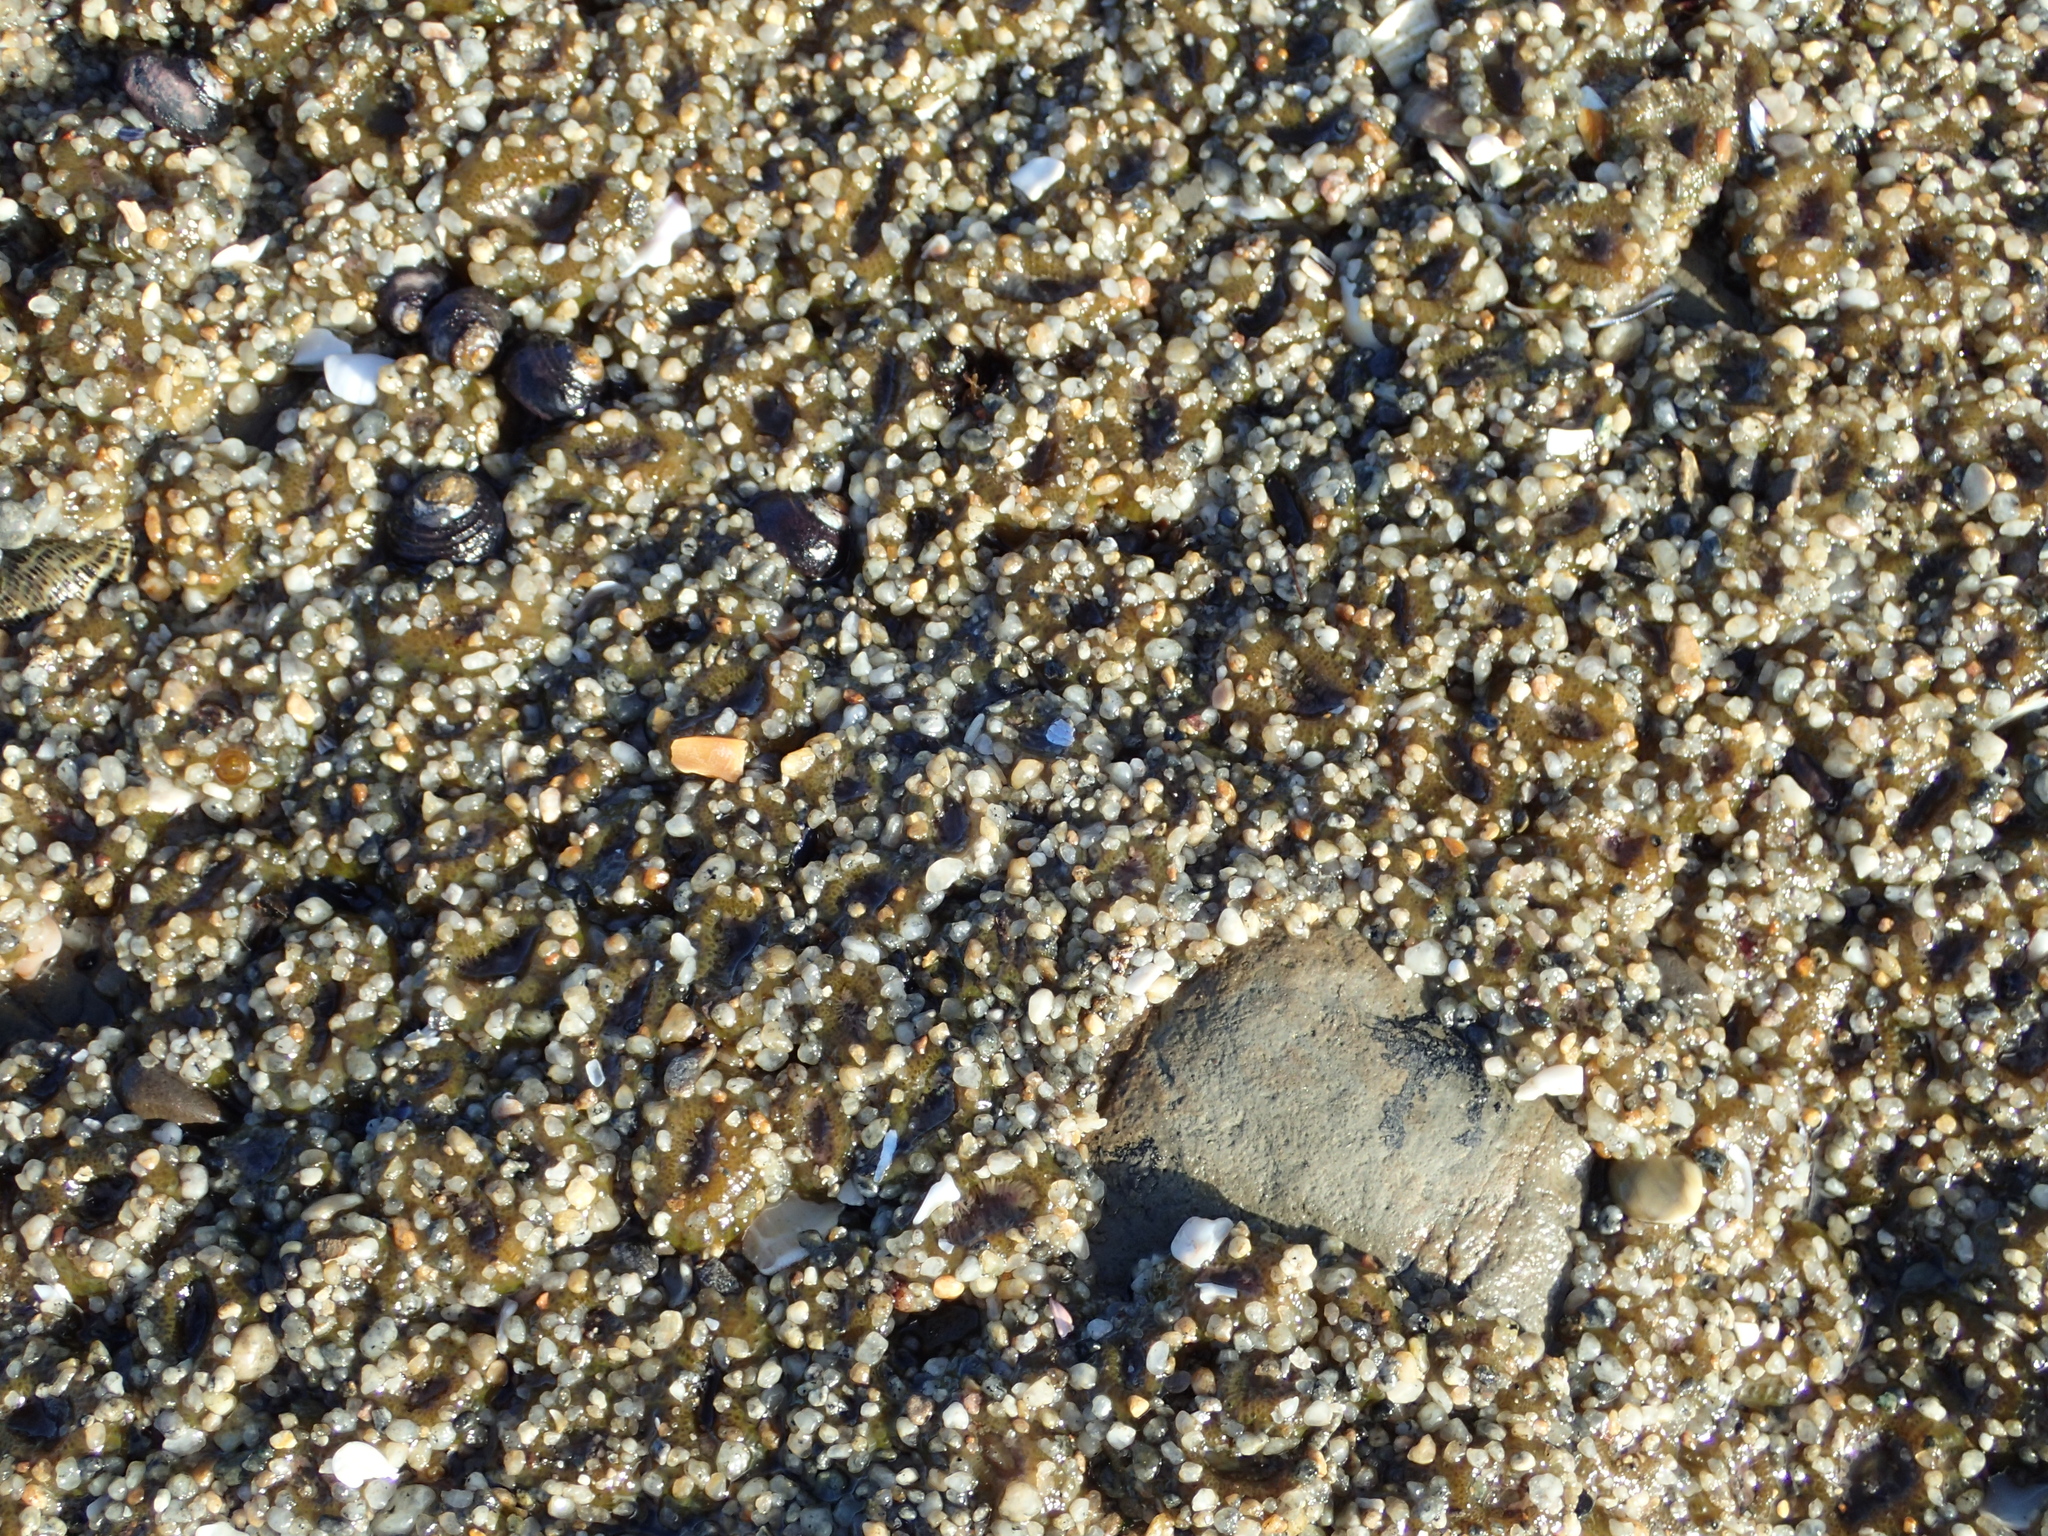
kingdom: Animalia
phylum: Cnidaria
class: Anthozoa
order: Actiniaria
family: Actiniidae
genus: Anthopleura
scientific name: Anthopleura elegantissima
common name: Clonal anemone
